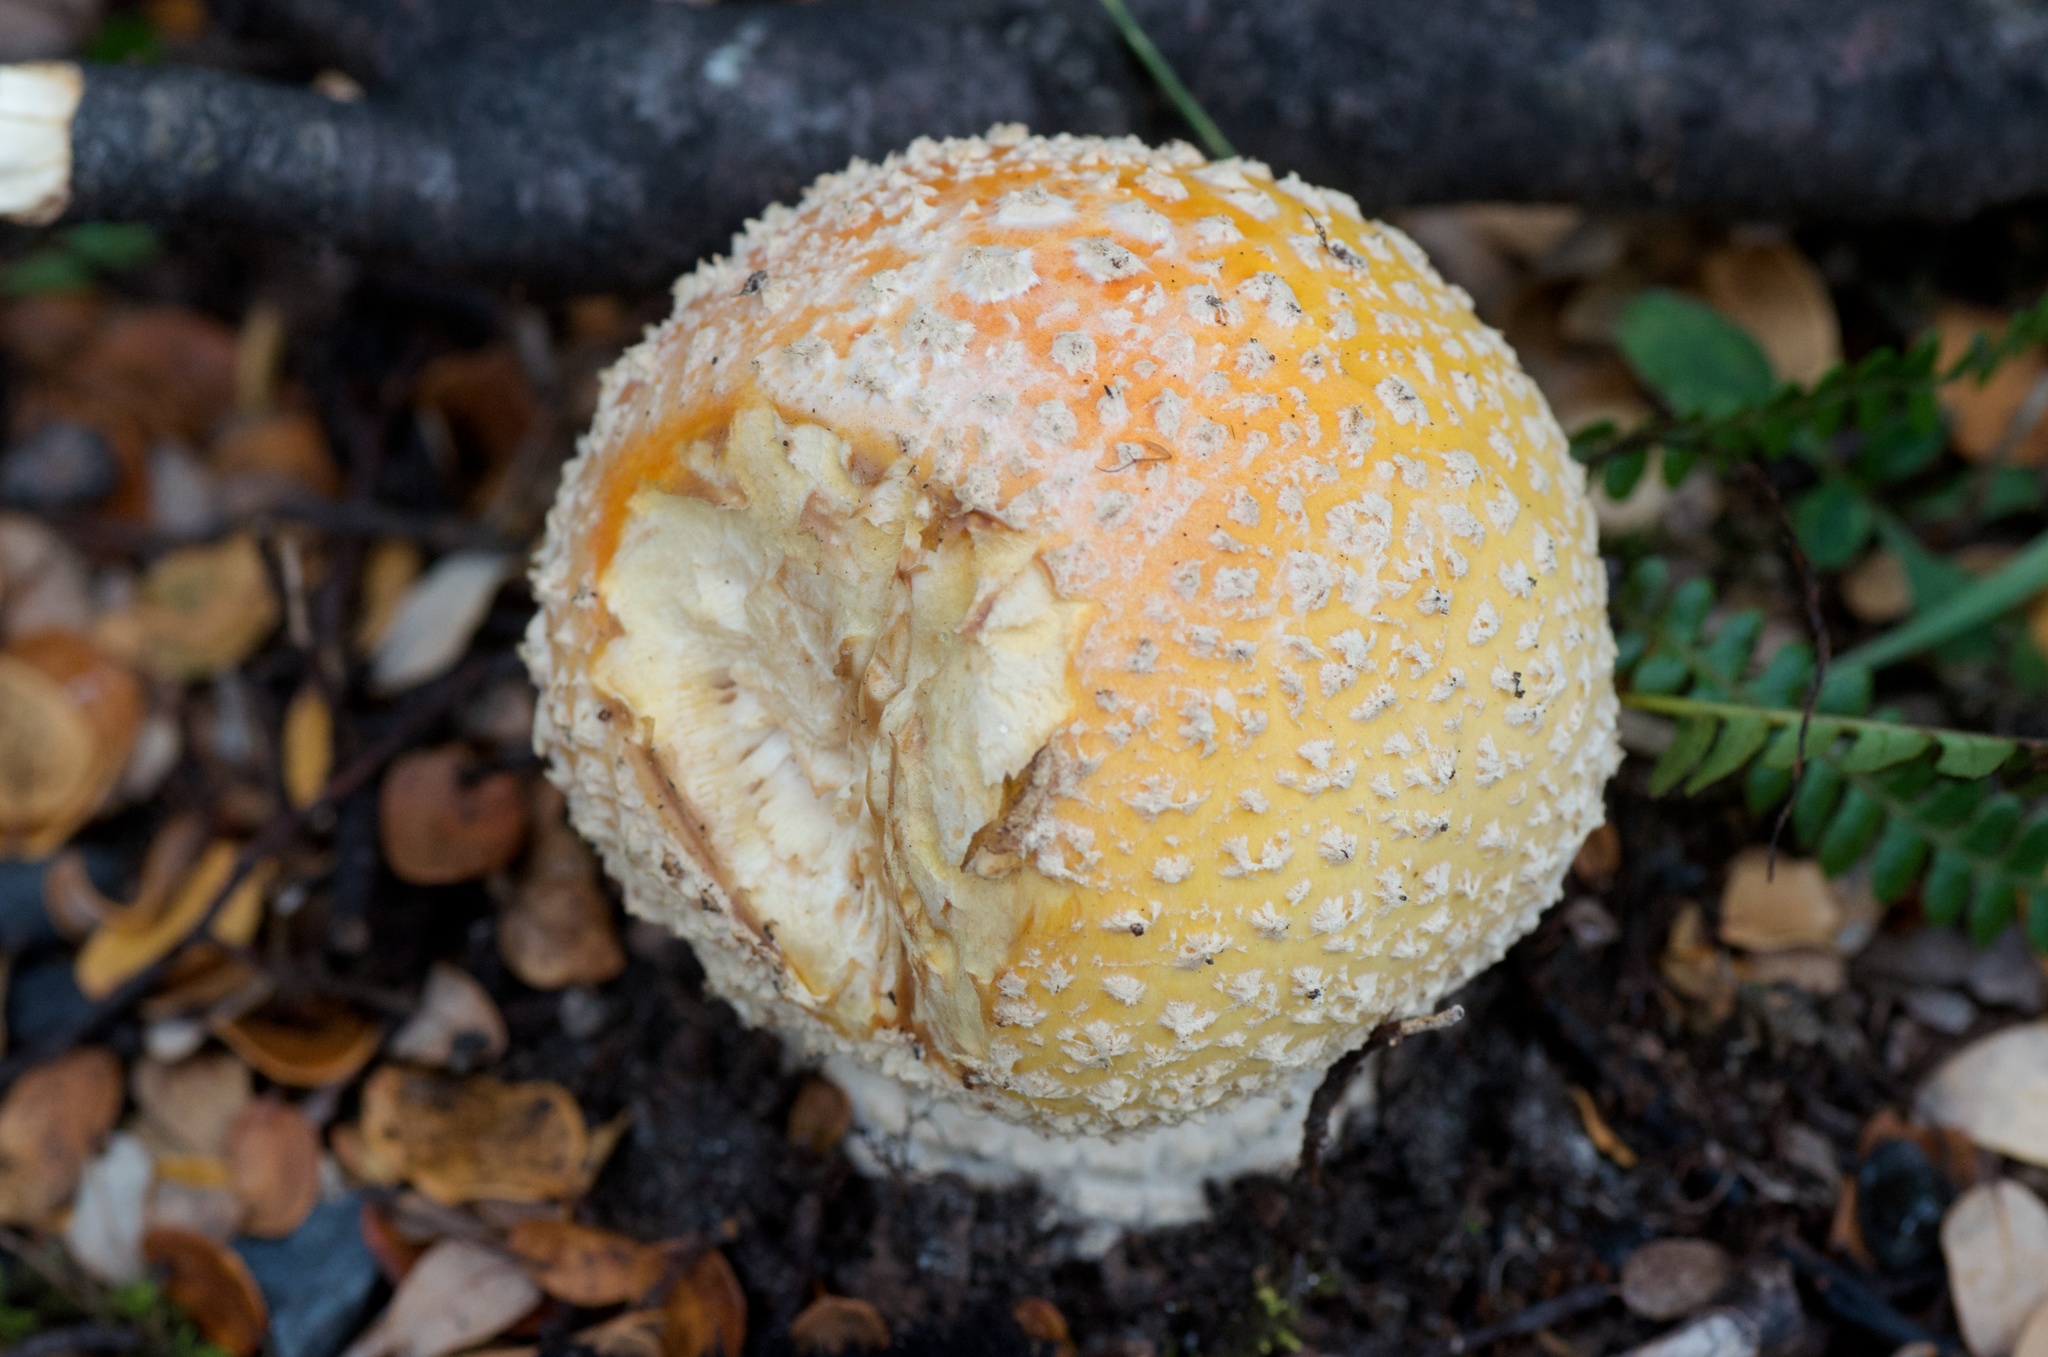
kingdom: Fungi
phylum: Basidiomycota
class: Agaricomycetes
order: Agaricales
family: Amanitaceae
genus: Amanita
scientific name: Amanita muscaria
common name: Fly agaric
